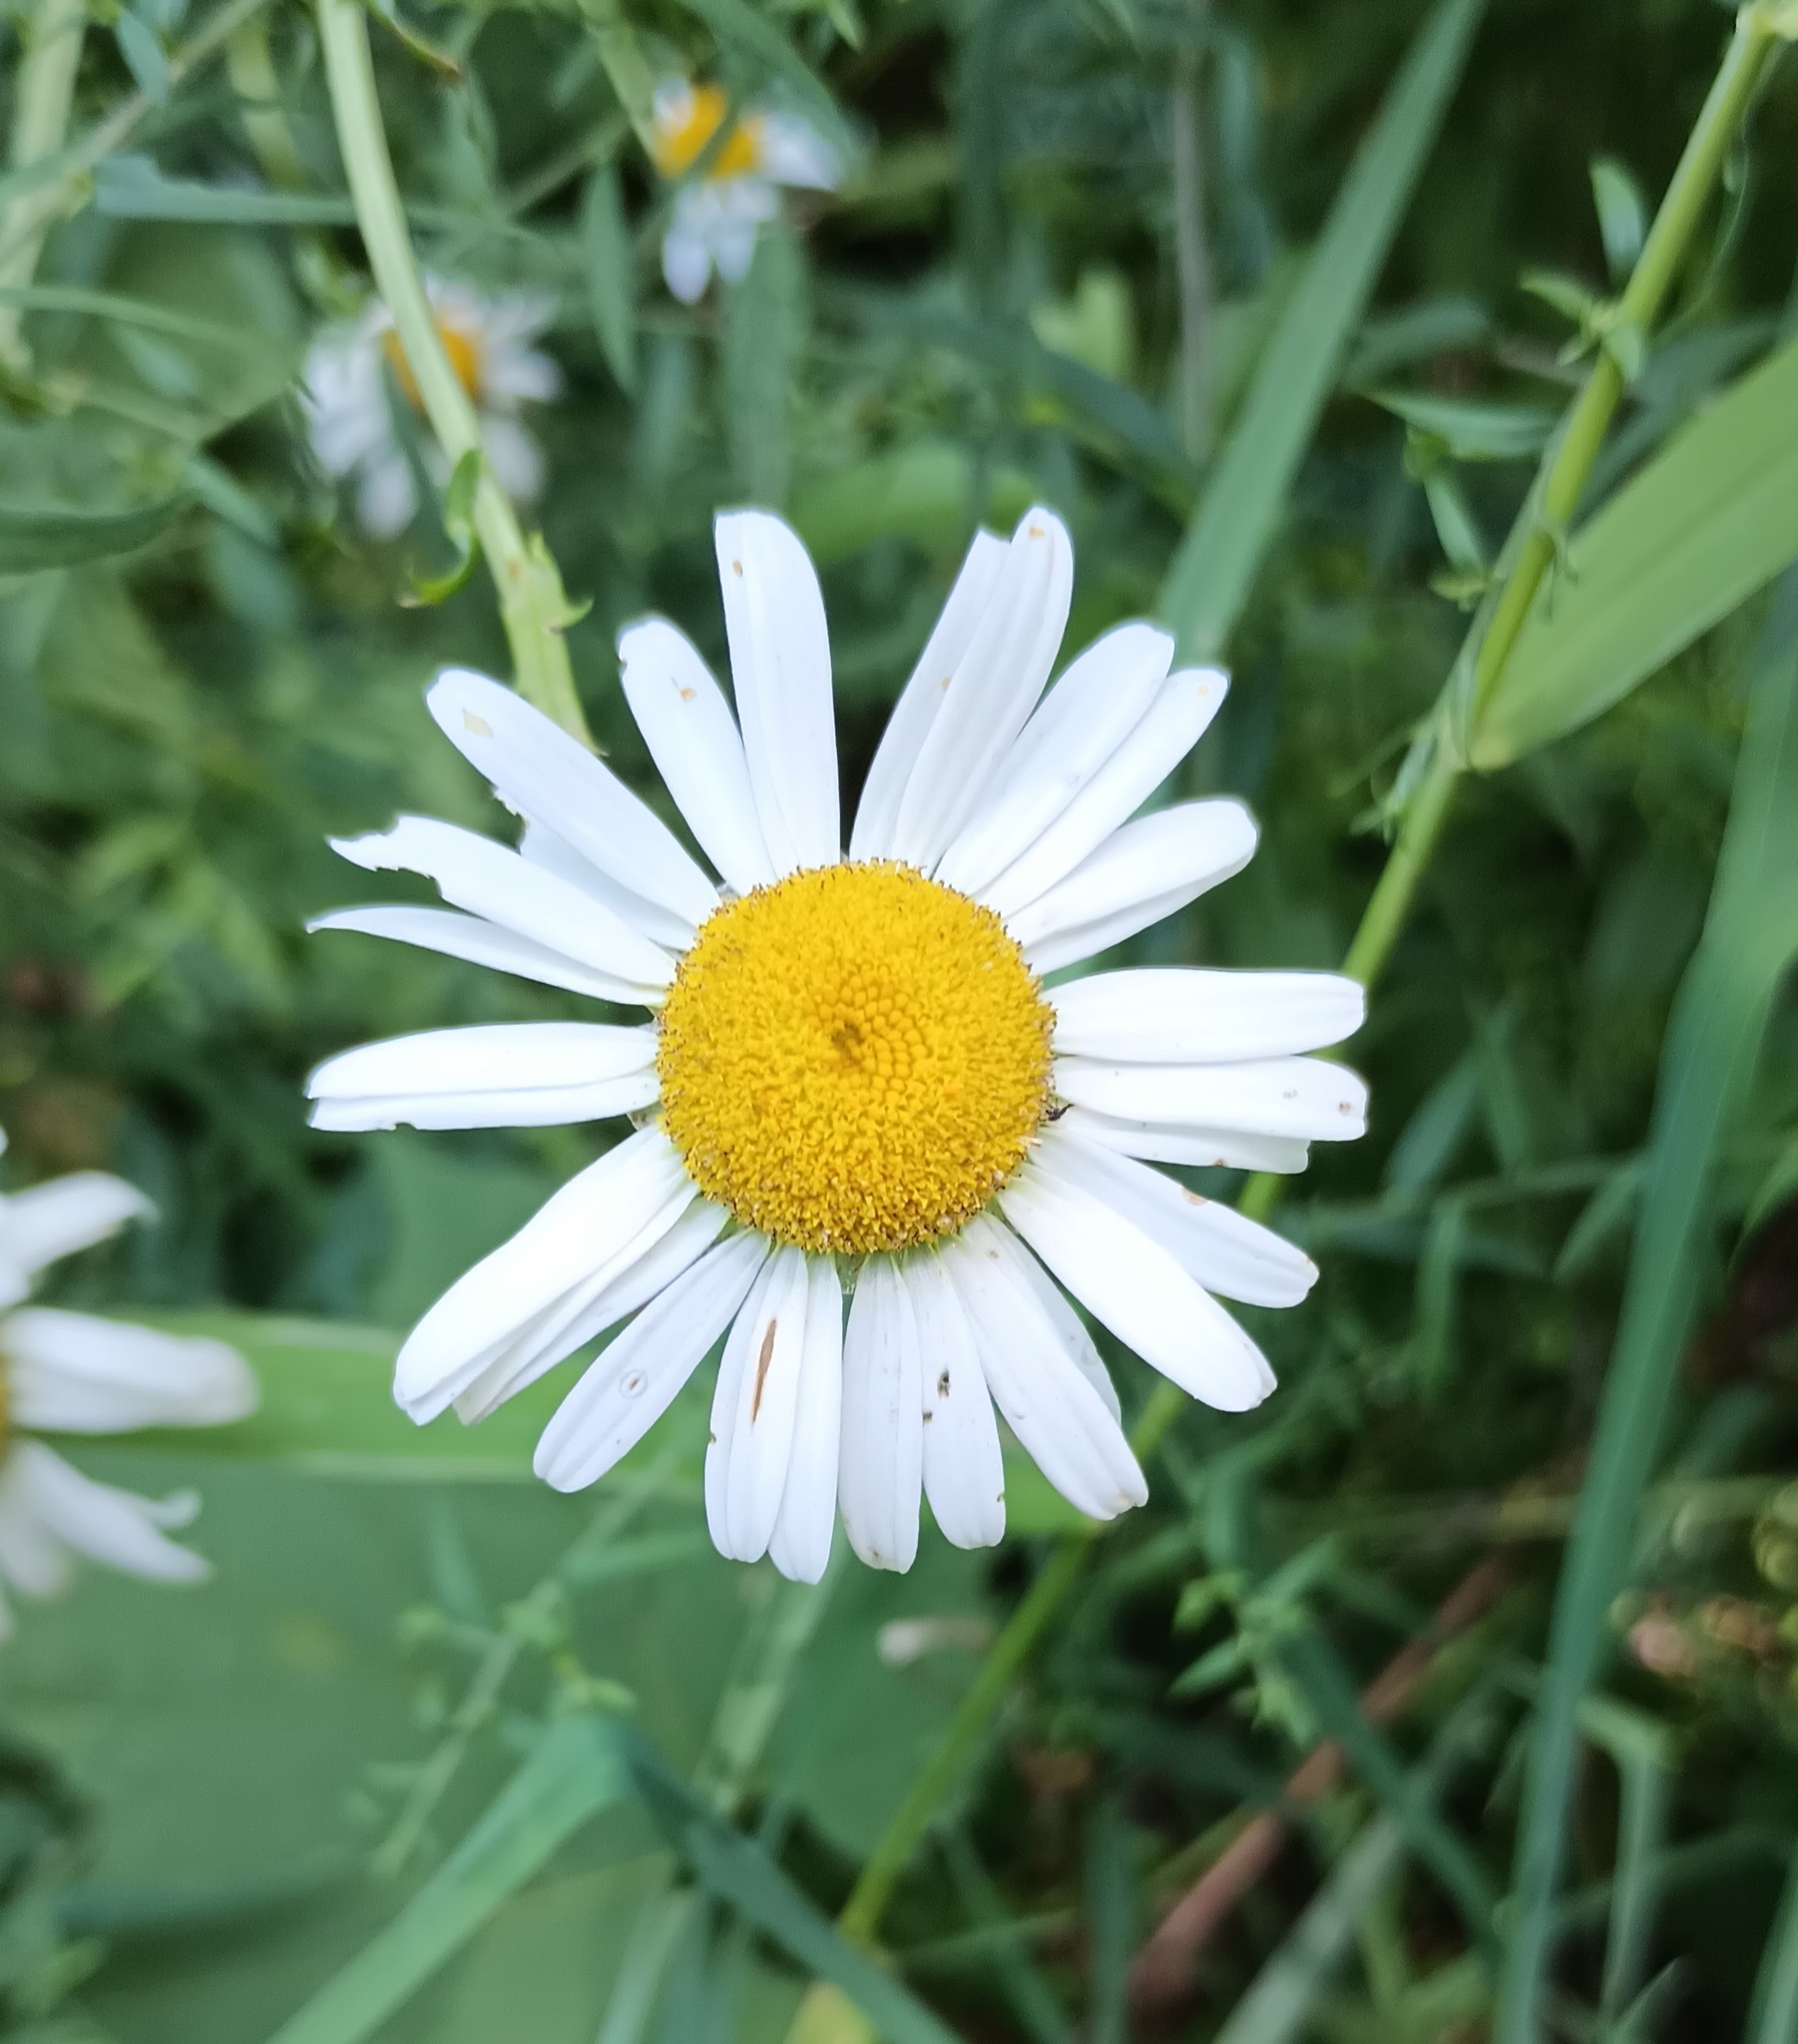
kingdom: Plantae
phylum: Tracheophyta
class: Magnoliopsida
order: Asterales
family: Asteraceae
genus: Leucanthemum
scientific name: Leucanthemum vulgare
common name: Oxeye daisy
